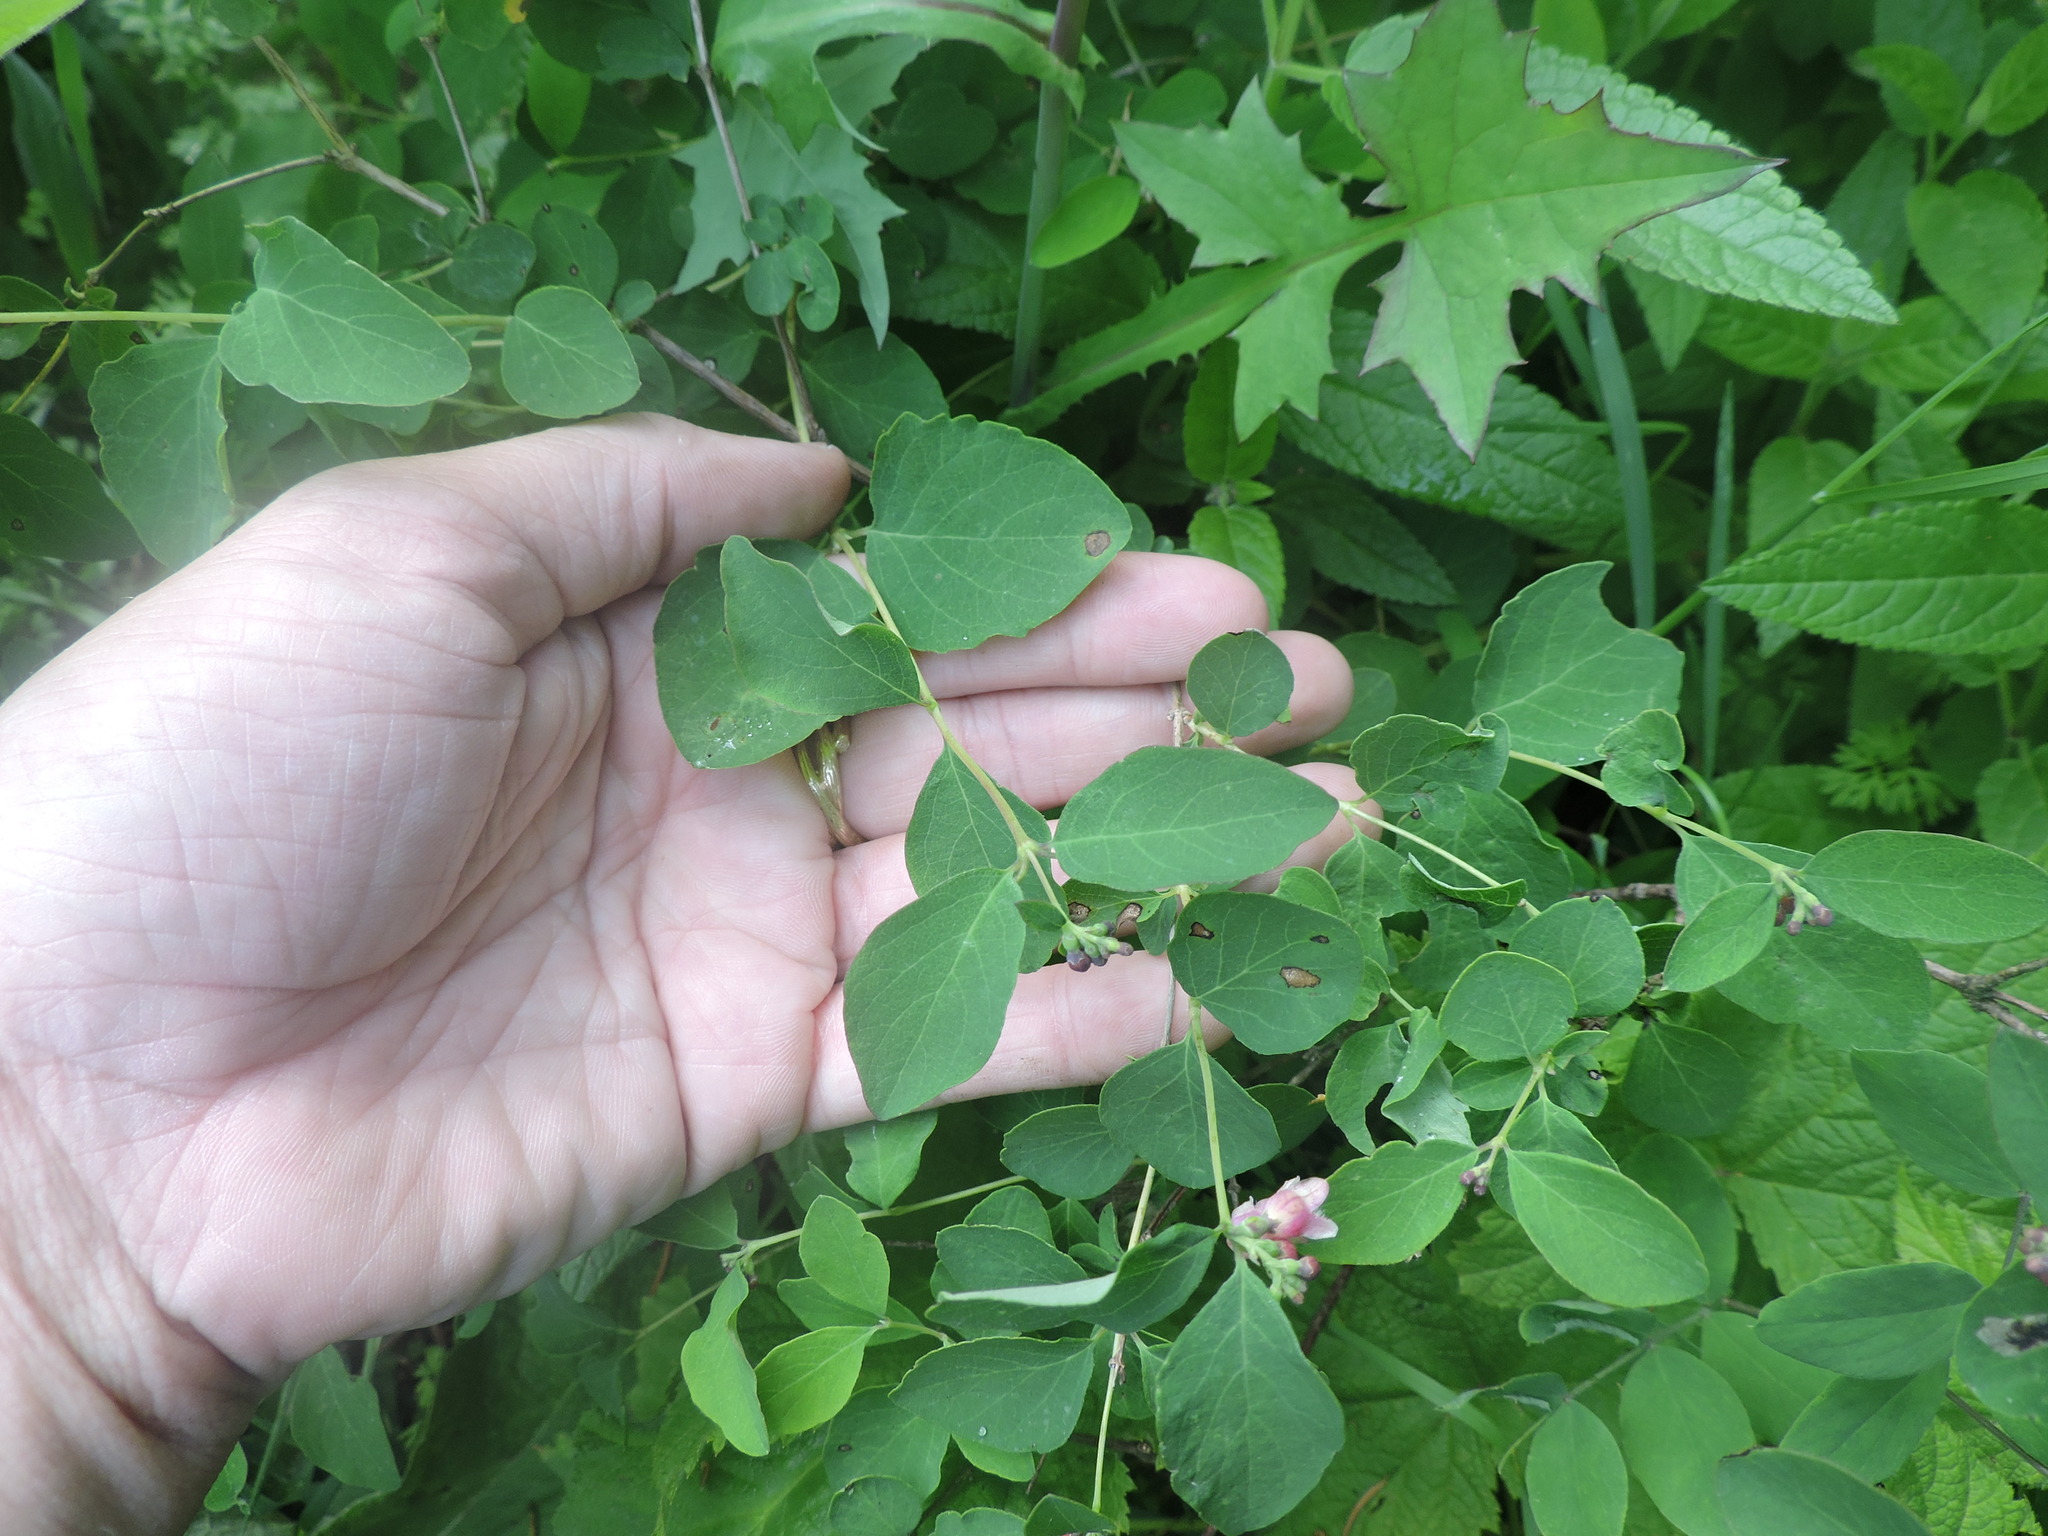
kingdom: Plantae
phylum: Tracheophyta
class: Magnoliopsida
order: Dipsacales
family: Caprifoliaceae
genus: Symphoricarpos
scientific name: Symphoricarpos albus
